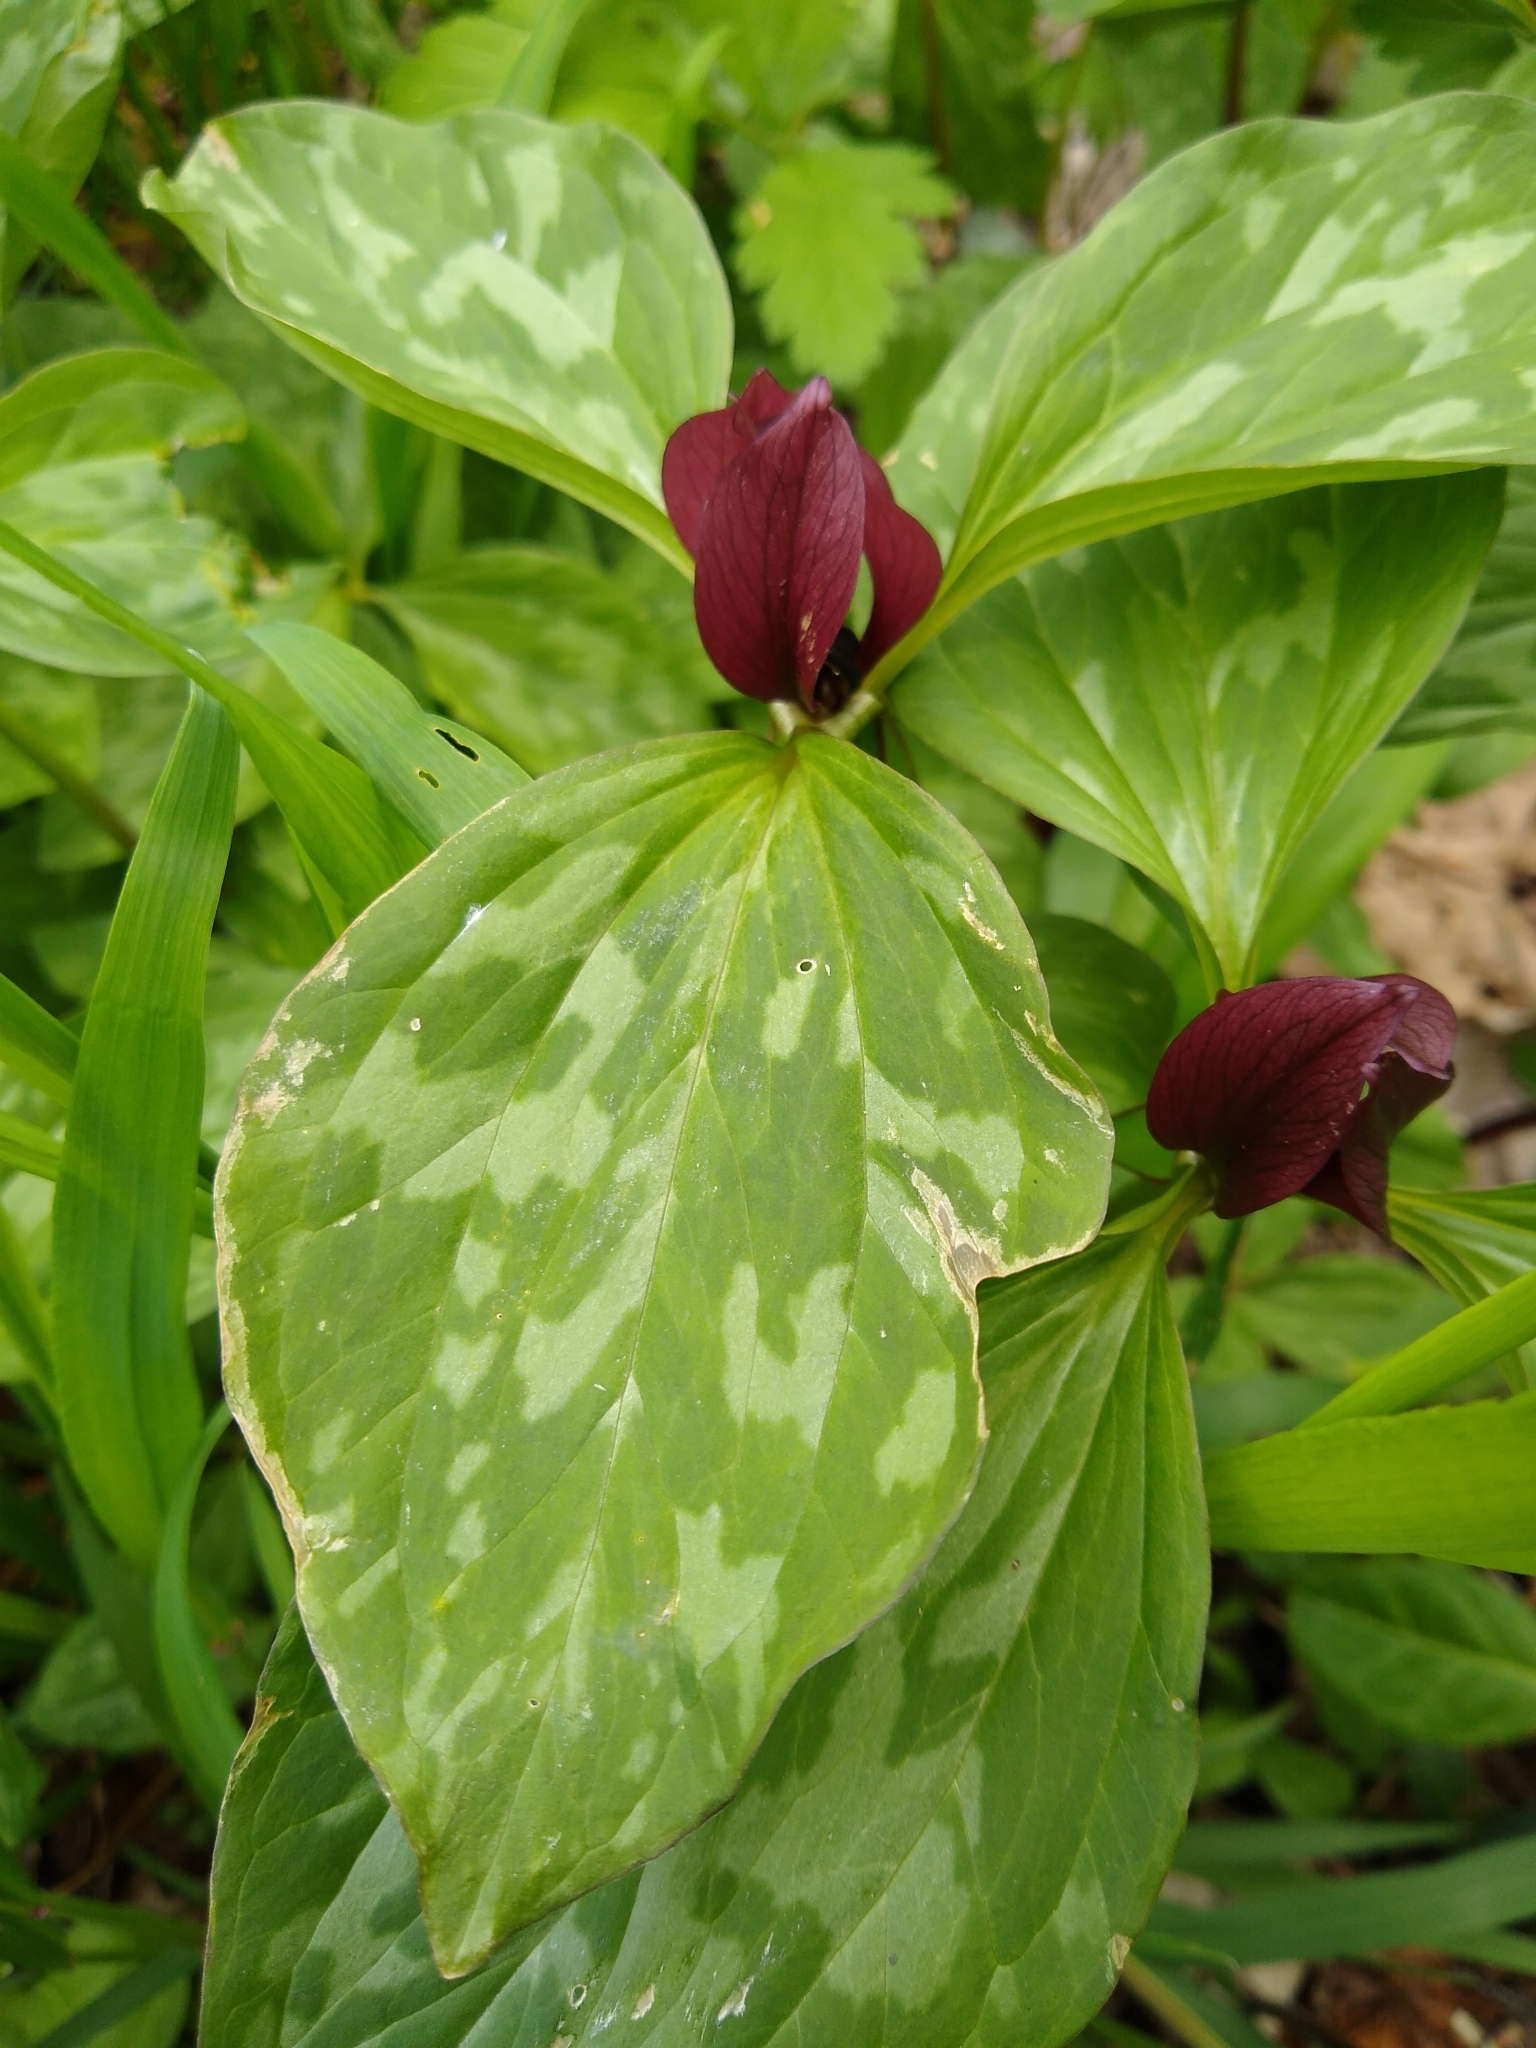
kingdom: Plantae
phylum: Tracheophyta
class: Liliopsida
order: Liliales
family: Melanthiaceae
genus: Trillium
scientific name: Trillium recurvatum
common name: Bloody butcher
